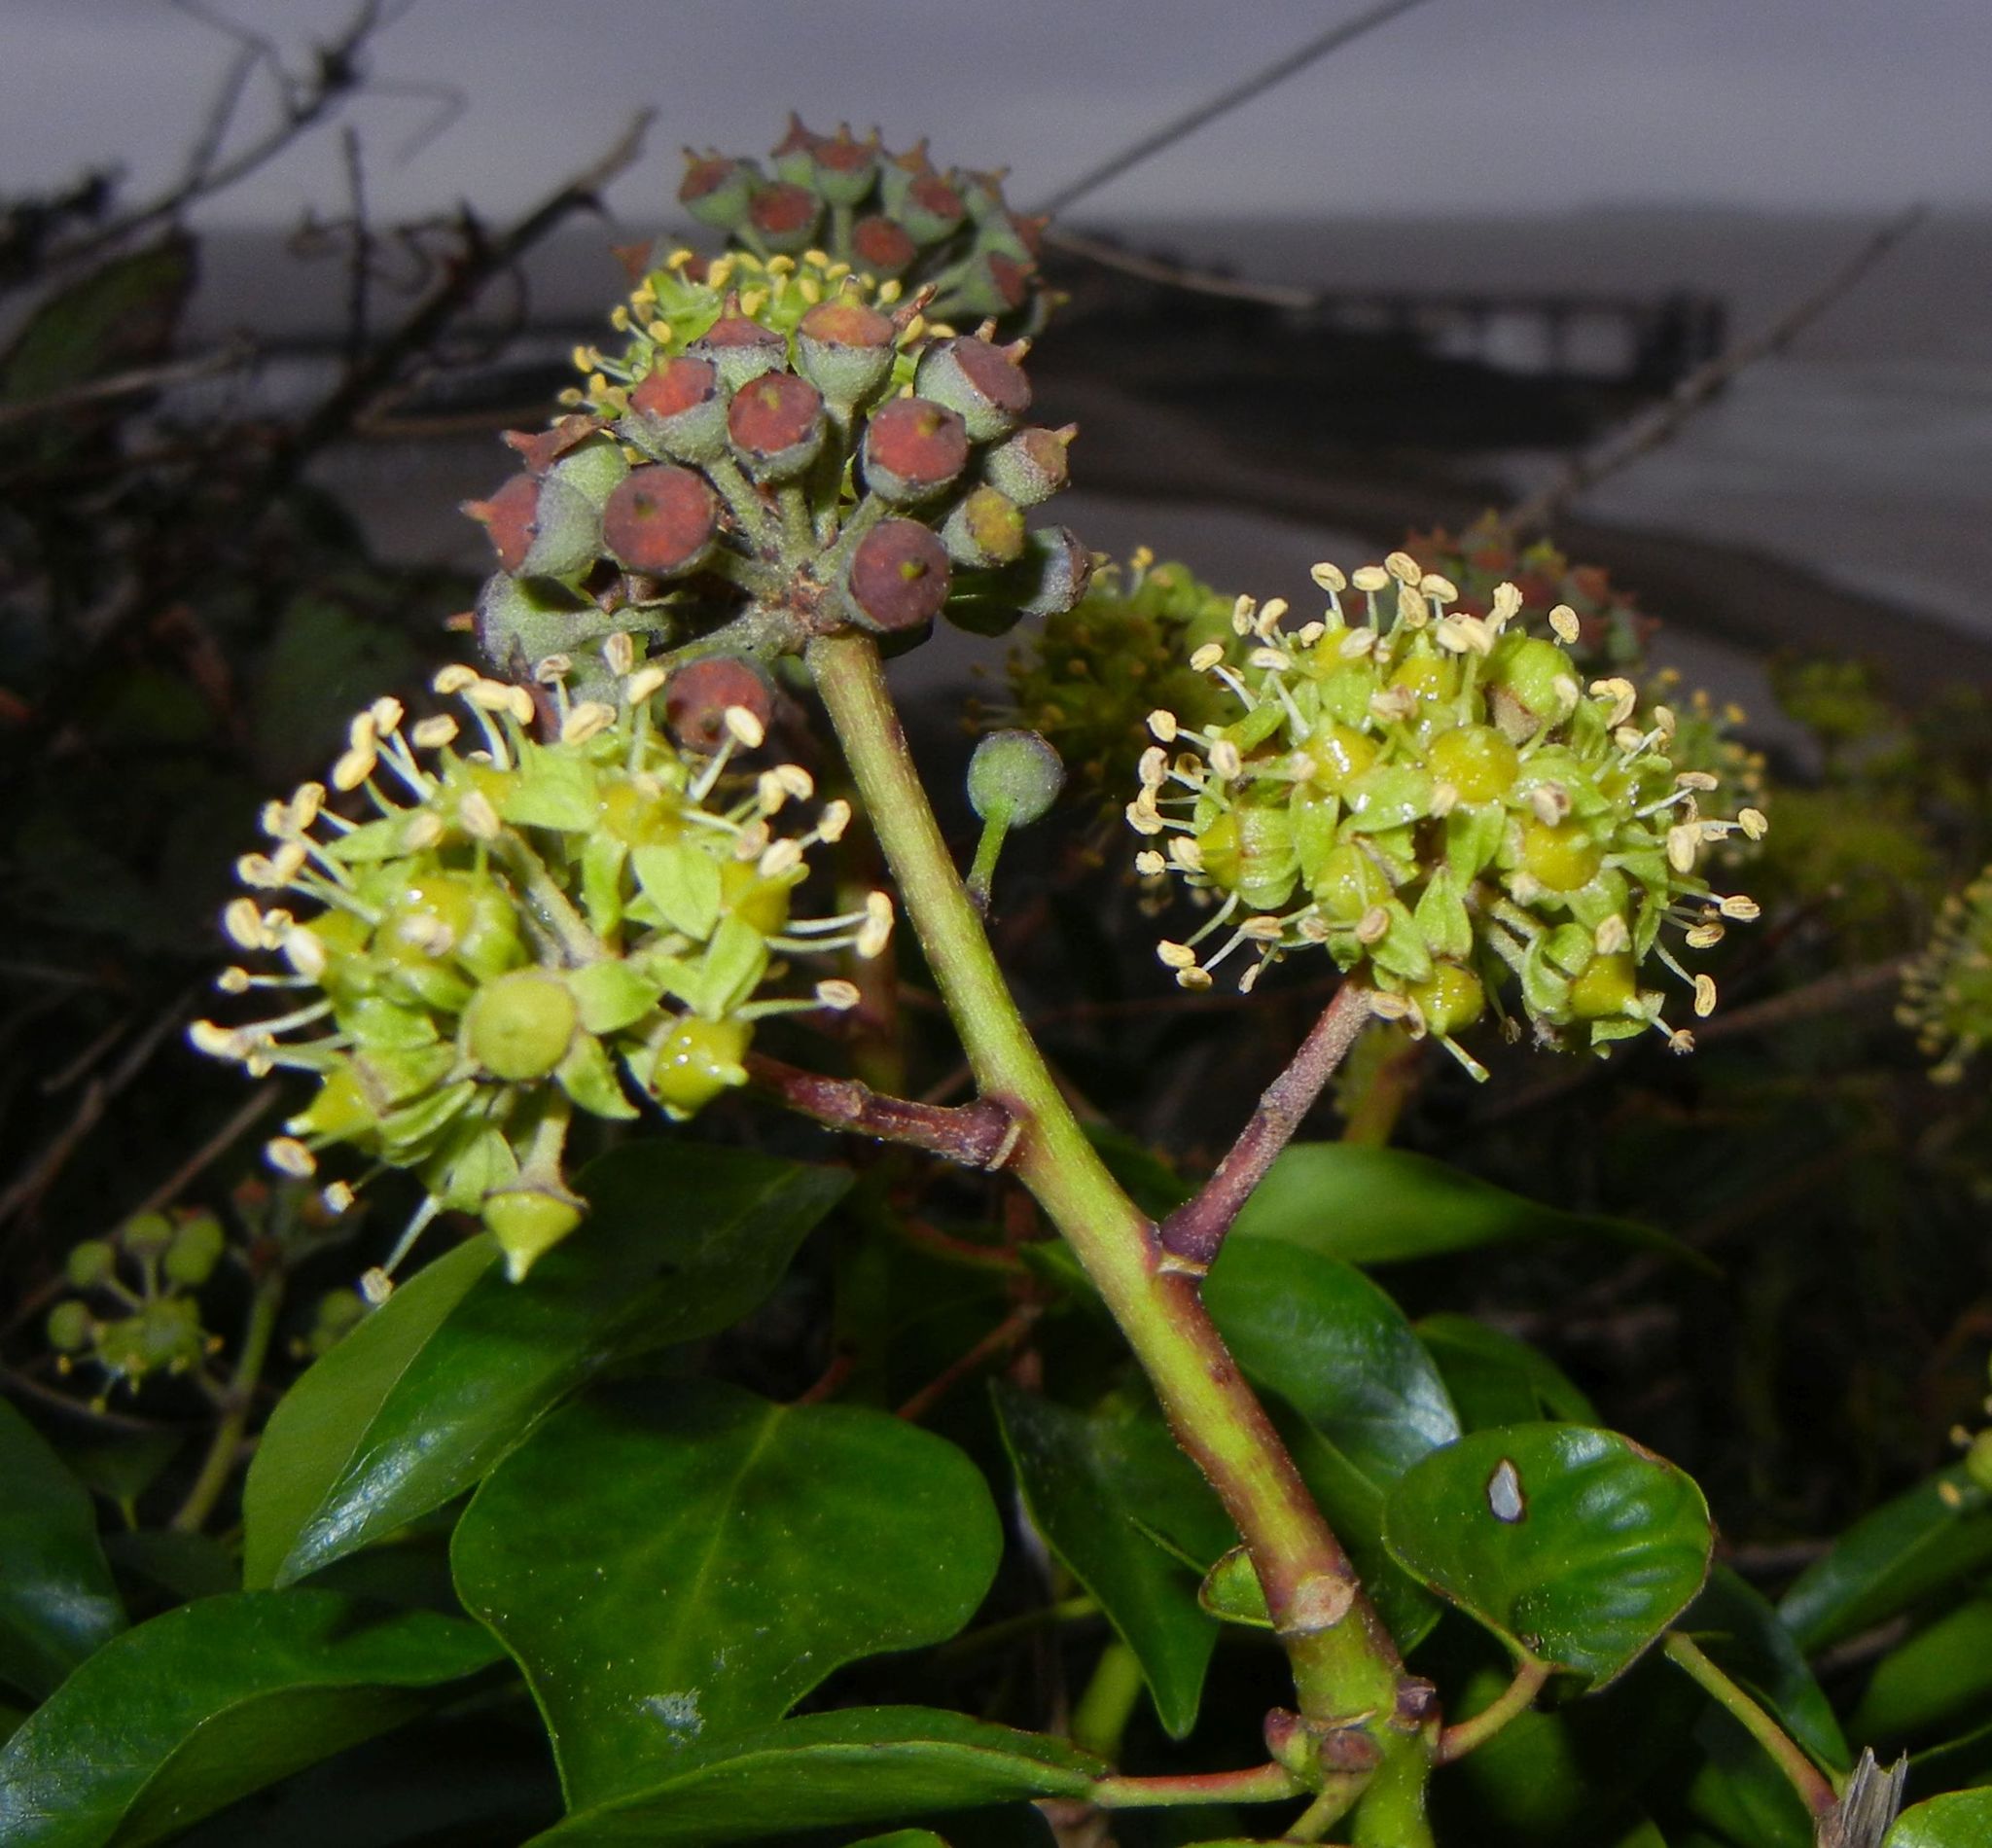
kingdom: Plantae
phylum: Tracheophyta
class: Magnoliopsida
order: Apiales
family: Araliaceae
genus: Hedera
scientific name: Hedera helix
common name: Ivy
